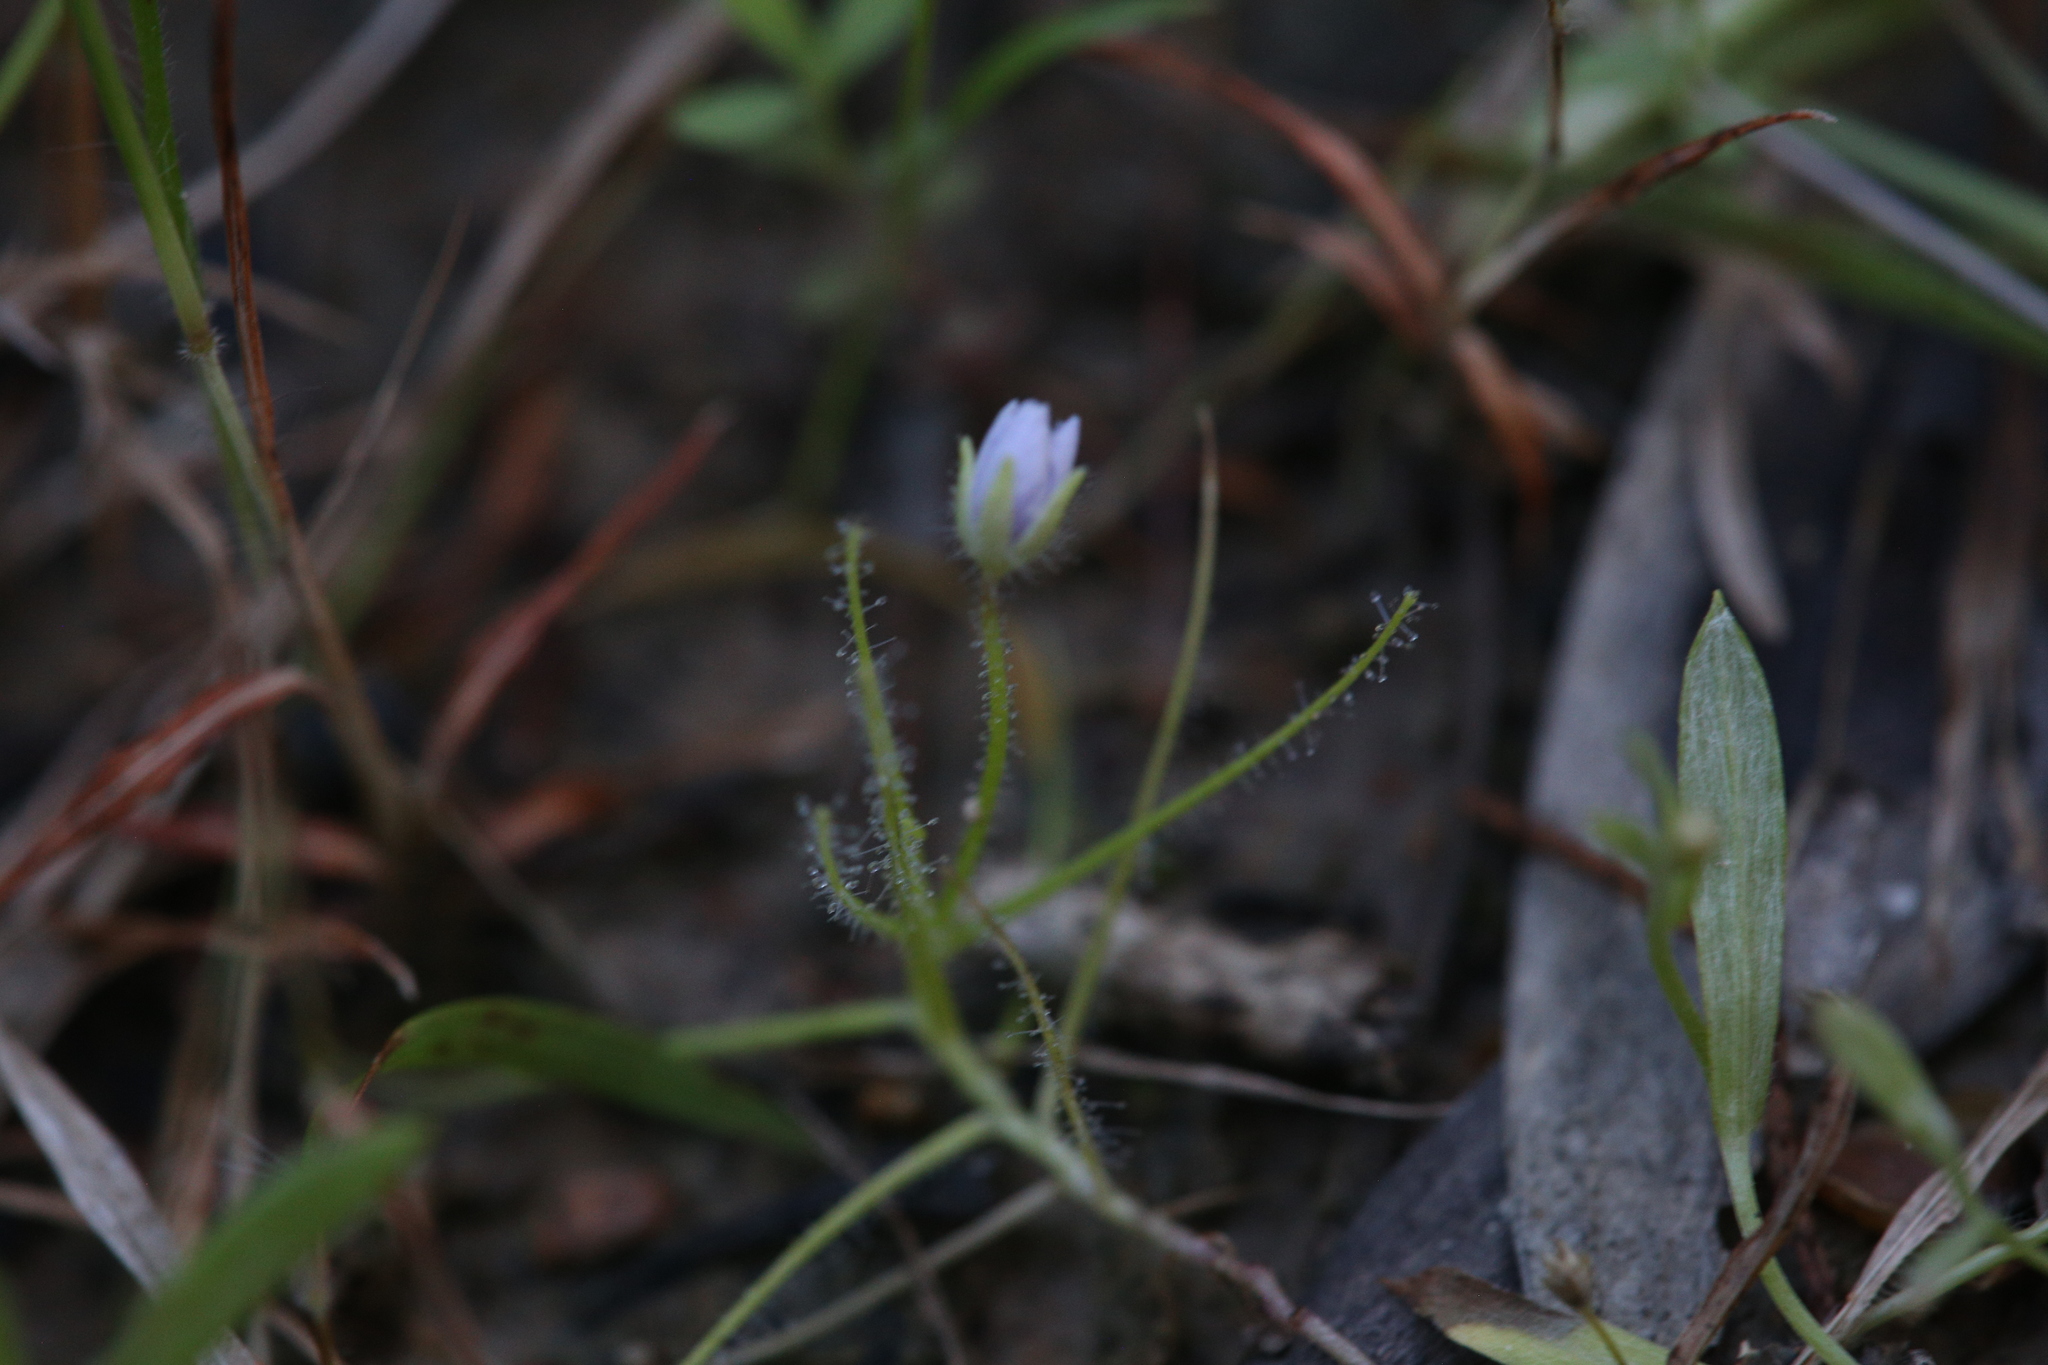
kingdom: Plantae
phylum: Tracheophyta
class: Magnoliopsida
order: Lamiales
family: Byblidaceae
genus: Byblis
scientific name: Byblis liniflora
